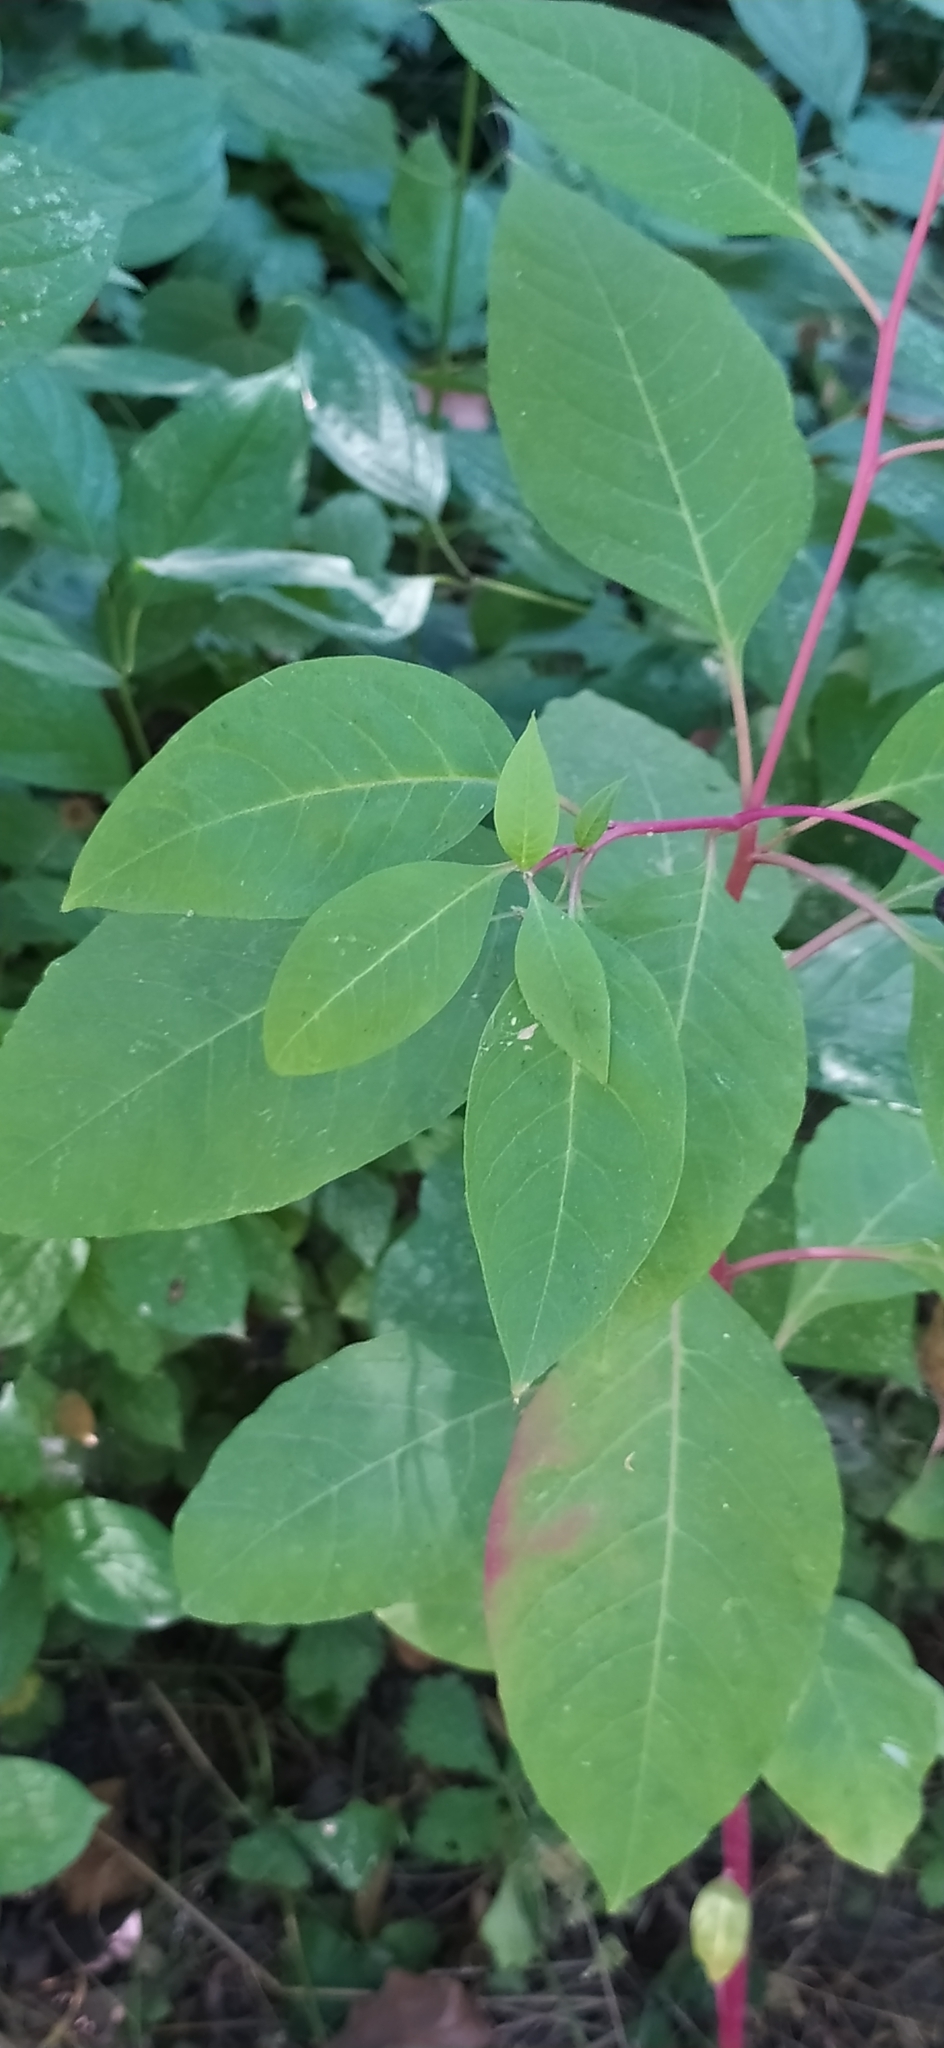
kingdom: Plantae
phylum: Tracheophyta
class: Magnoliopsida
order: Caryophyllales
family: Phytolaccaceae
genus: Phytolacca
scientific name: Phytolacca americana
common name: American pokeweed
